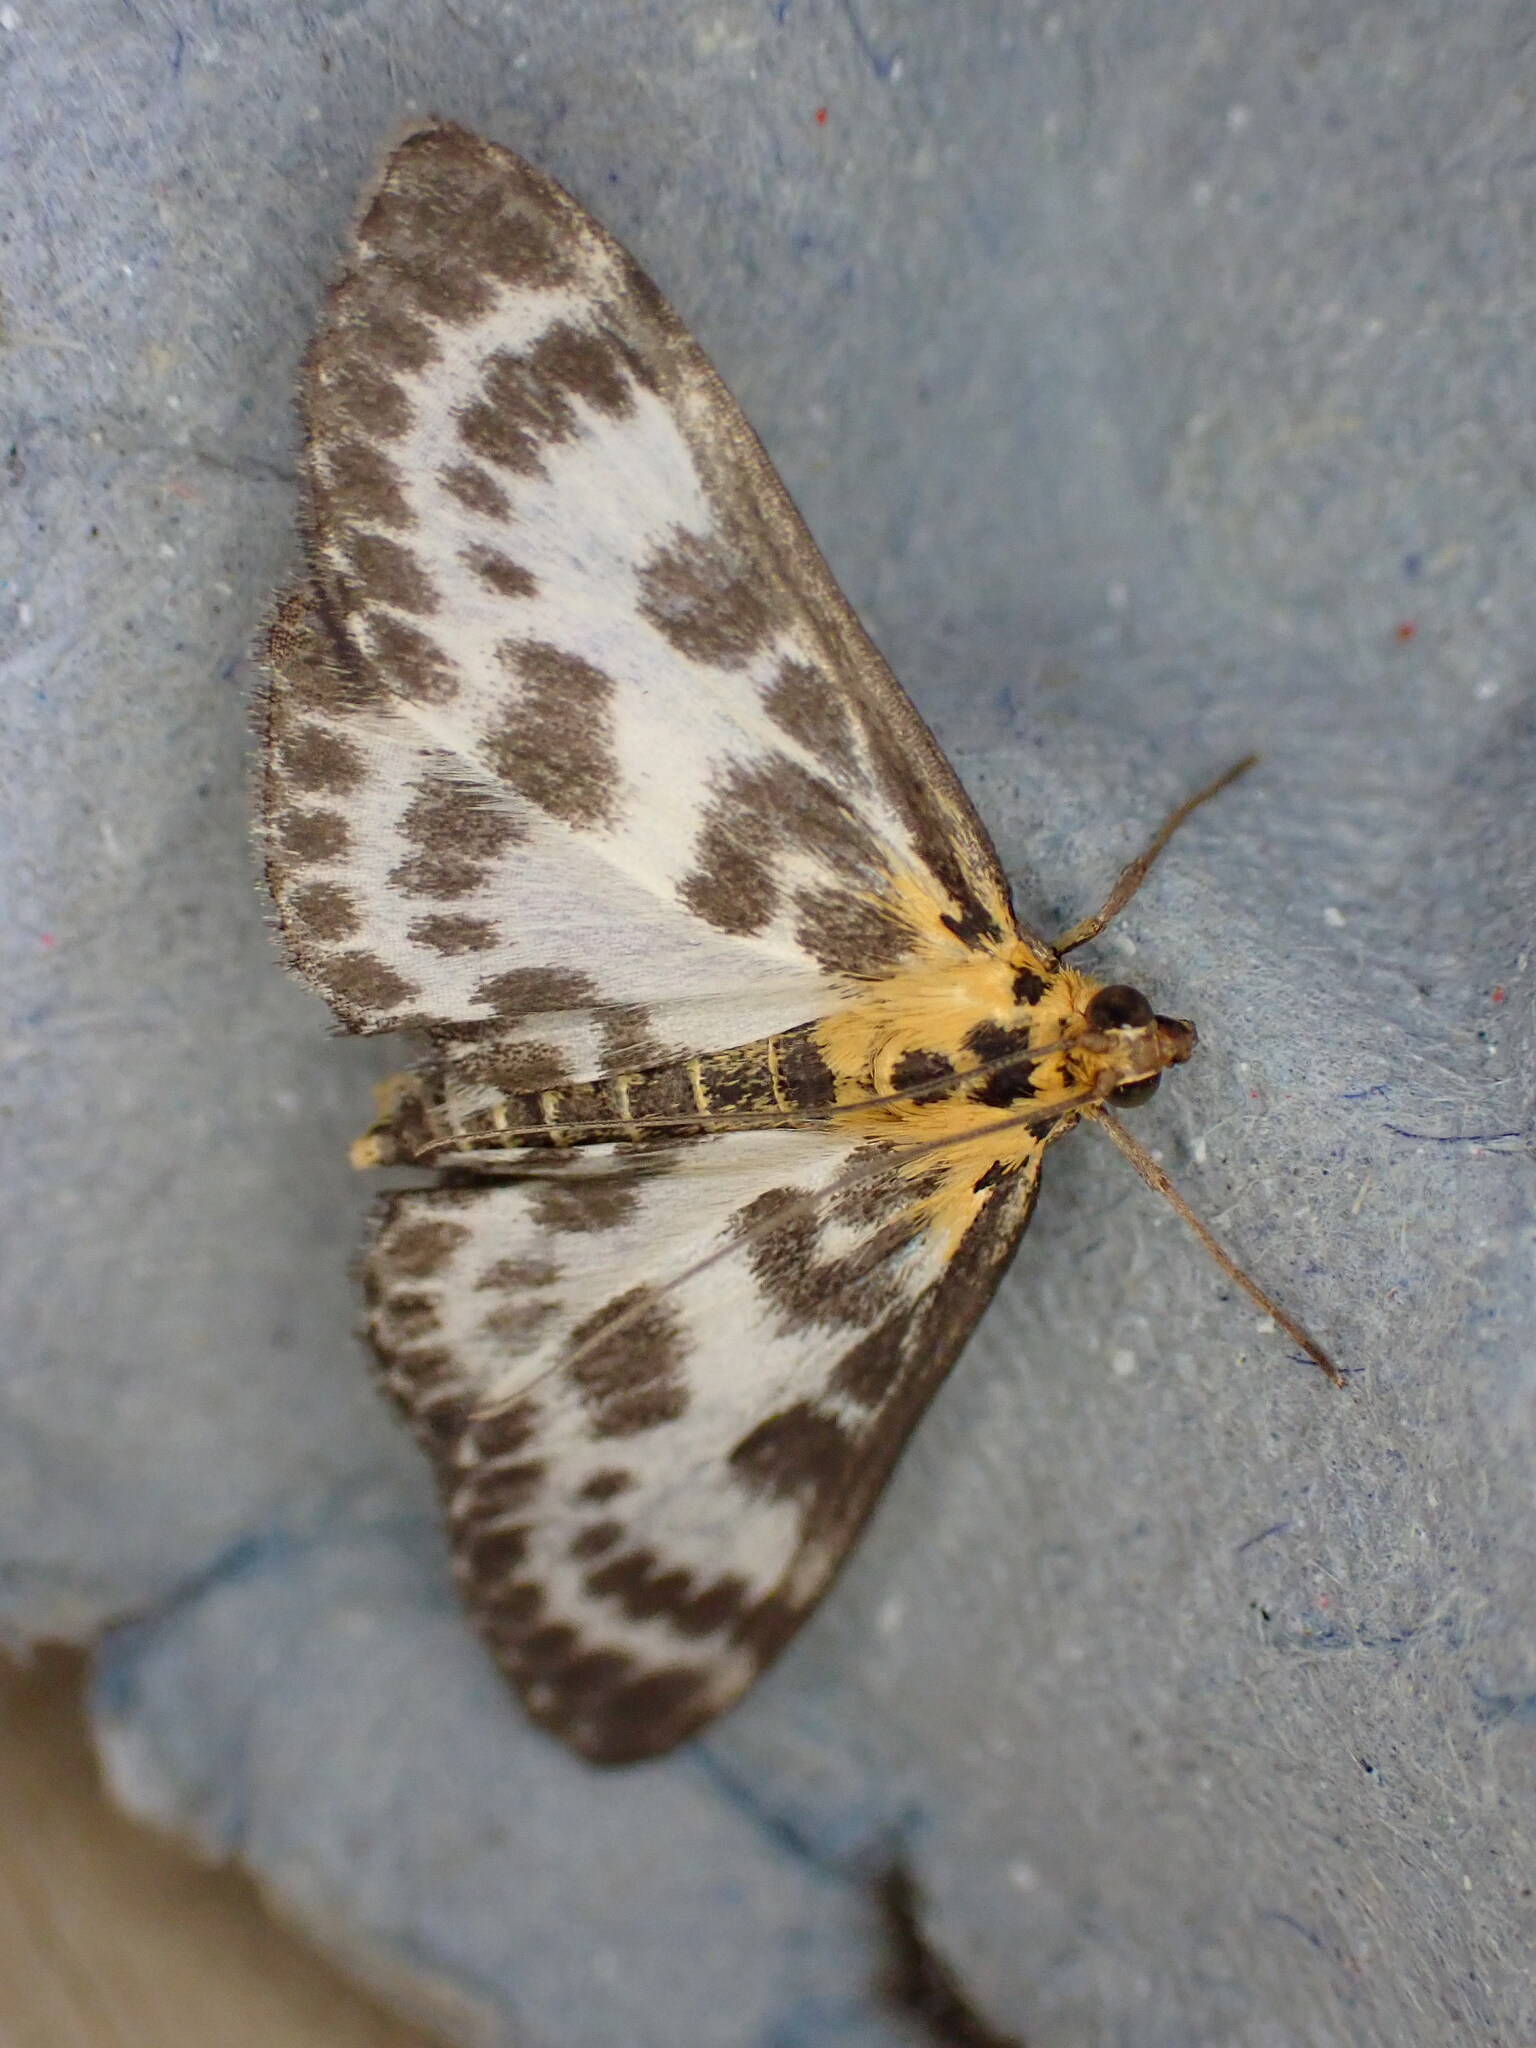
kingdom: Animalia
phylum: Arthropoda
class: Insecta
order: Lepidoptera
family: Crambidae
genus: Anania
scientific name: Anania hortulata
